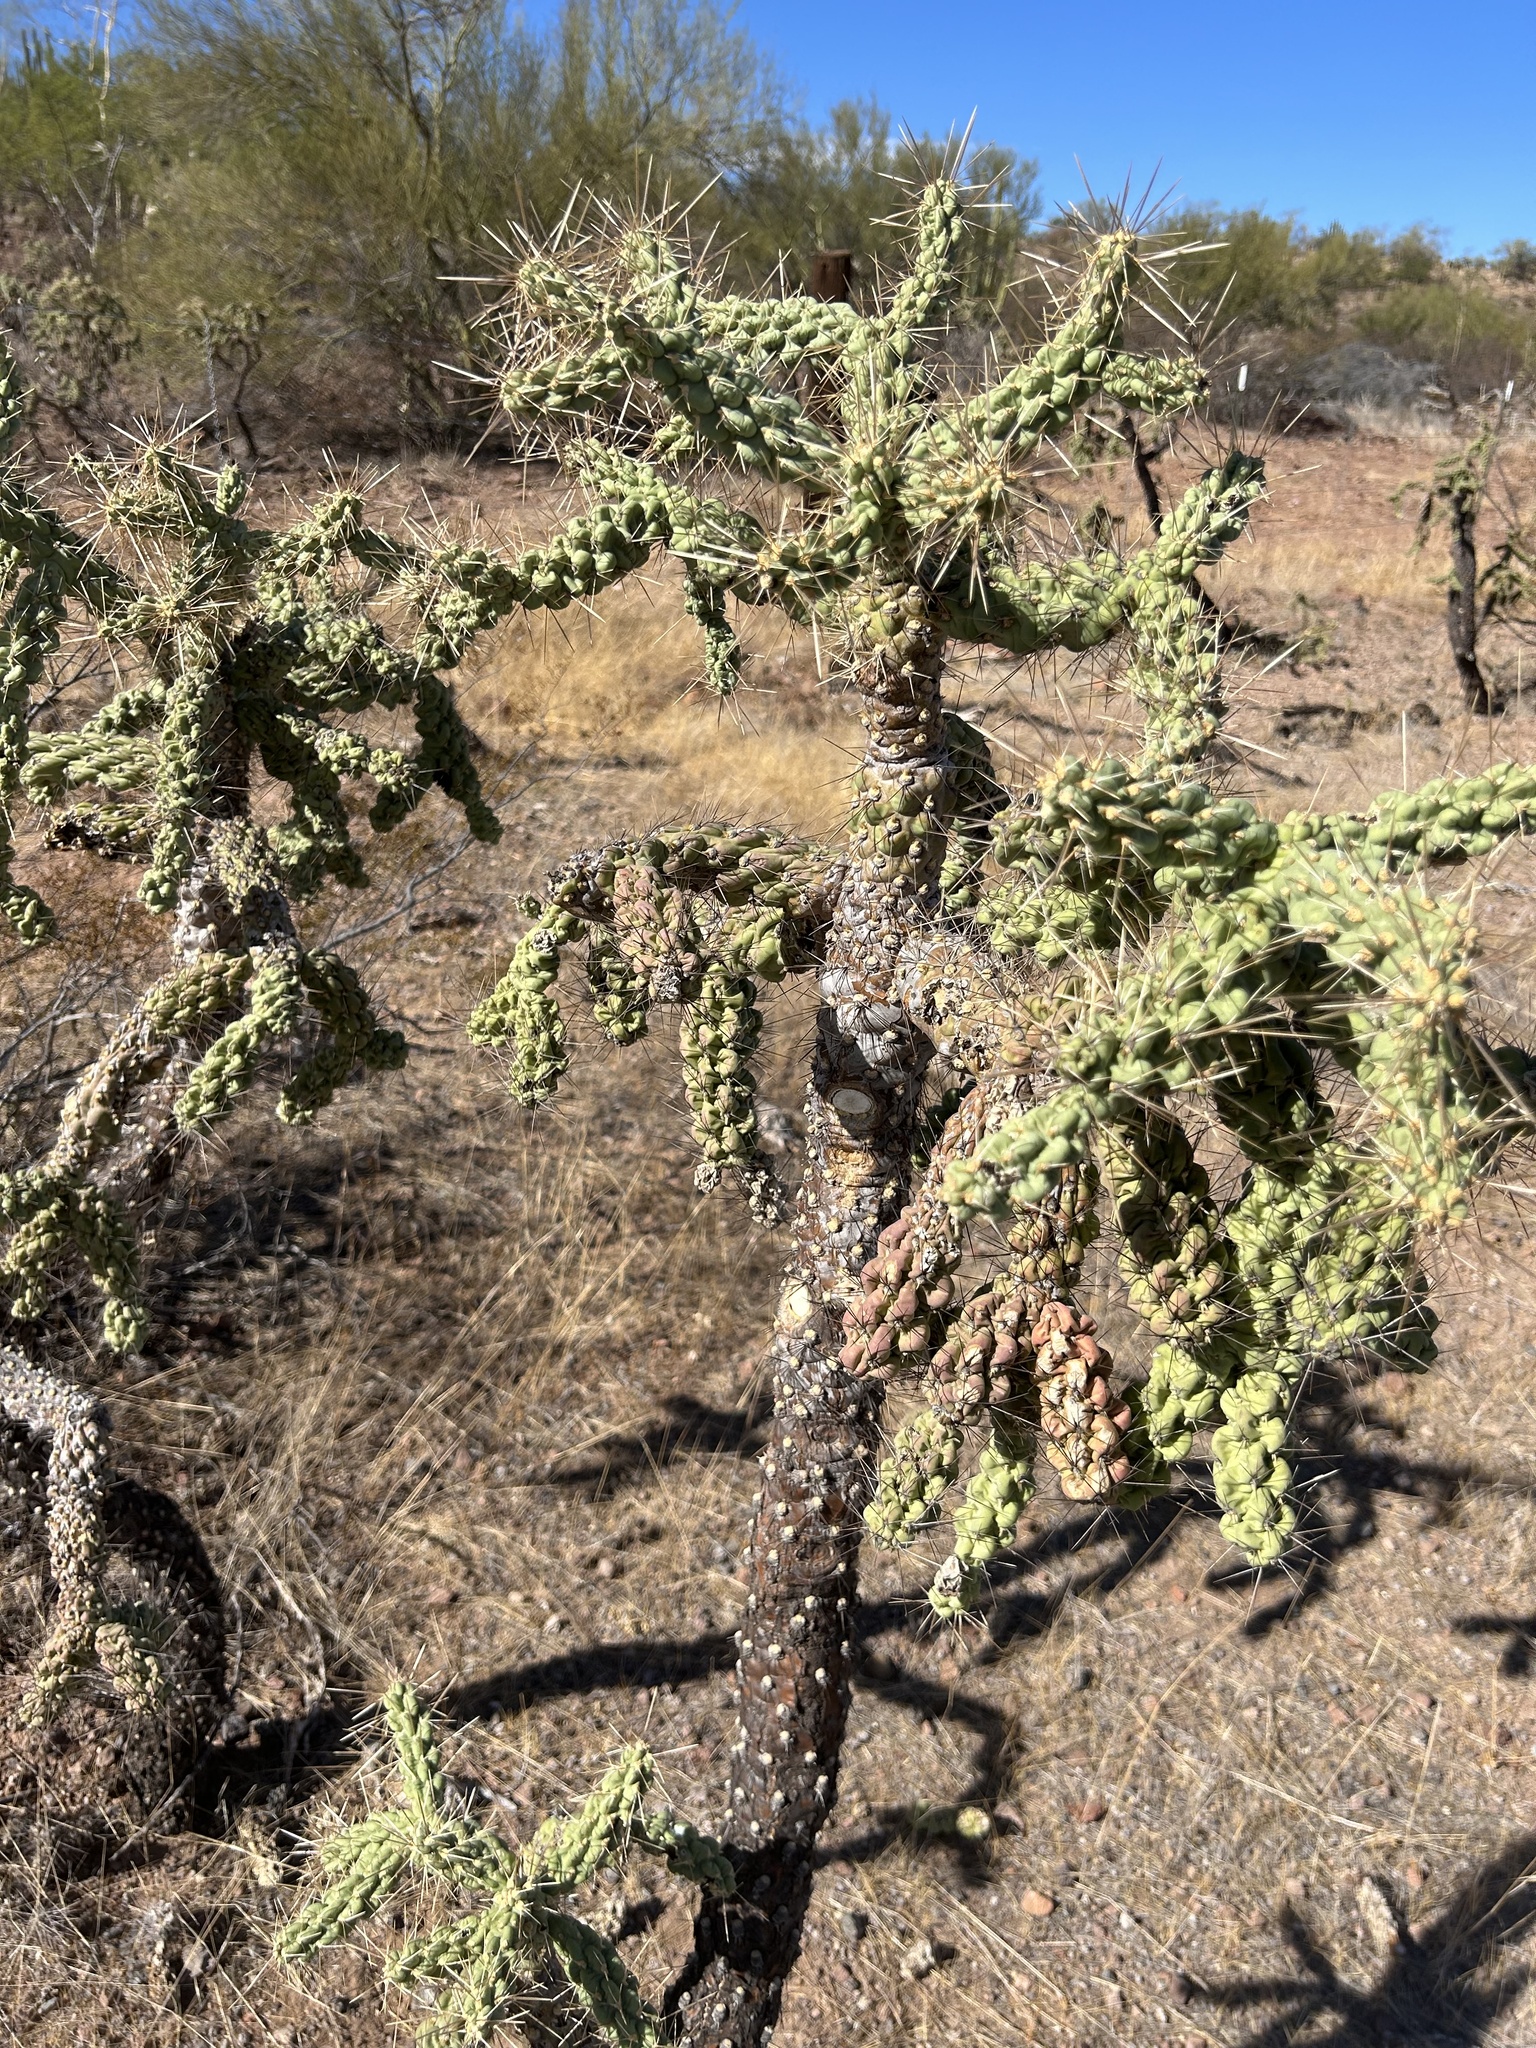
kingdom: Plantae
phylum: Tracheophyta
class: Magnoliopsida
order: Caryophyllales
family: Cactaceae
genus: Cylindropuntia
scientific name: Cylindropuntia fulgida
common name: Jumping cholla
